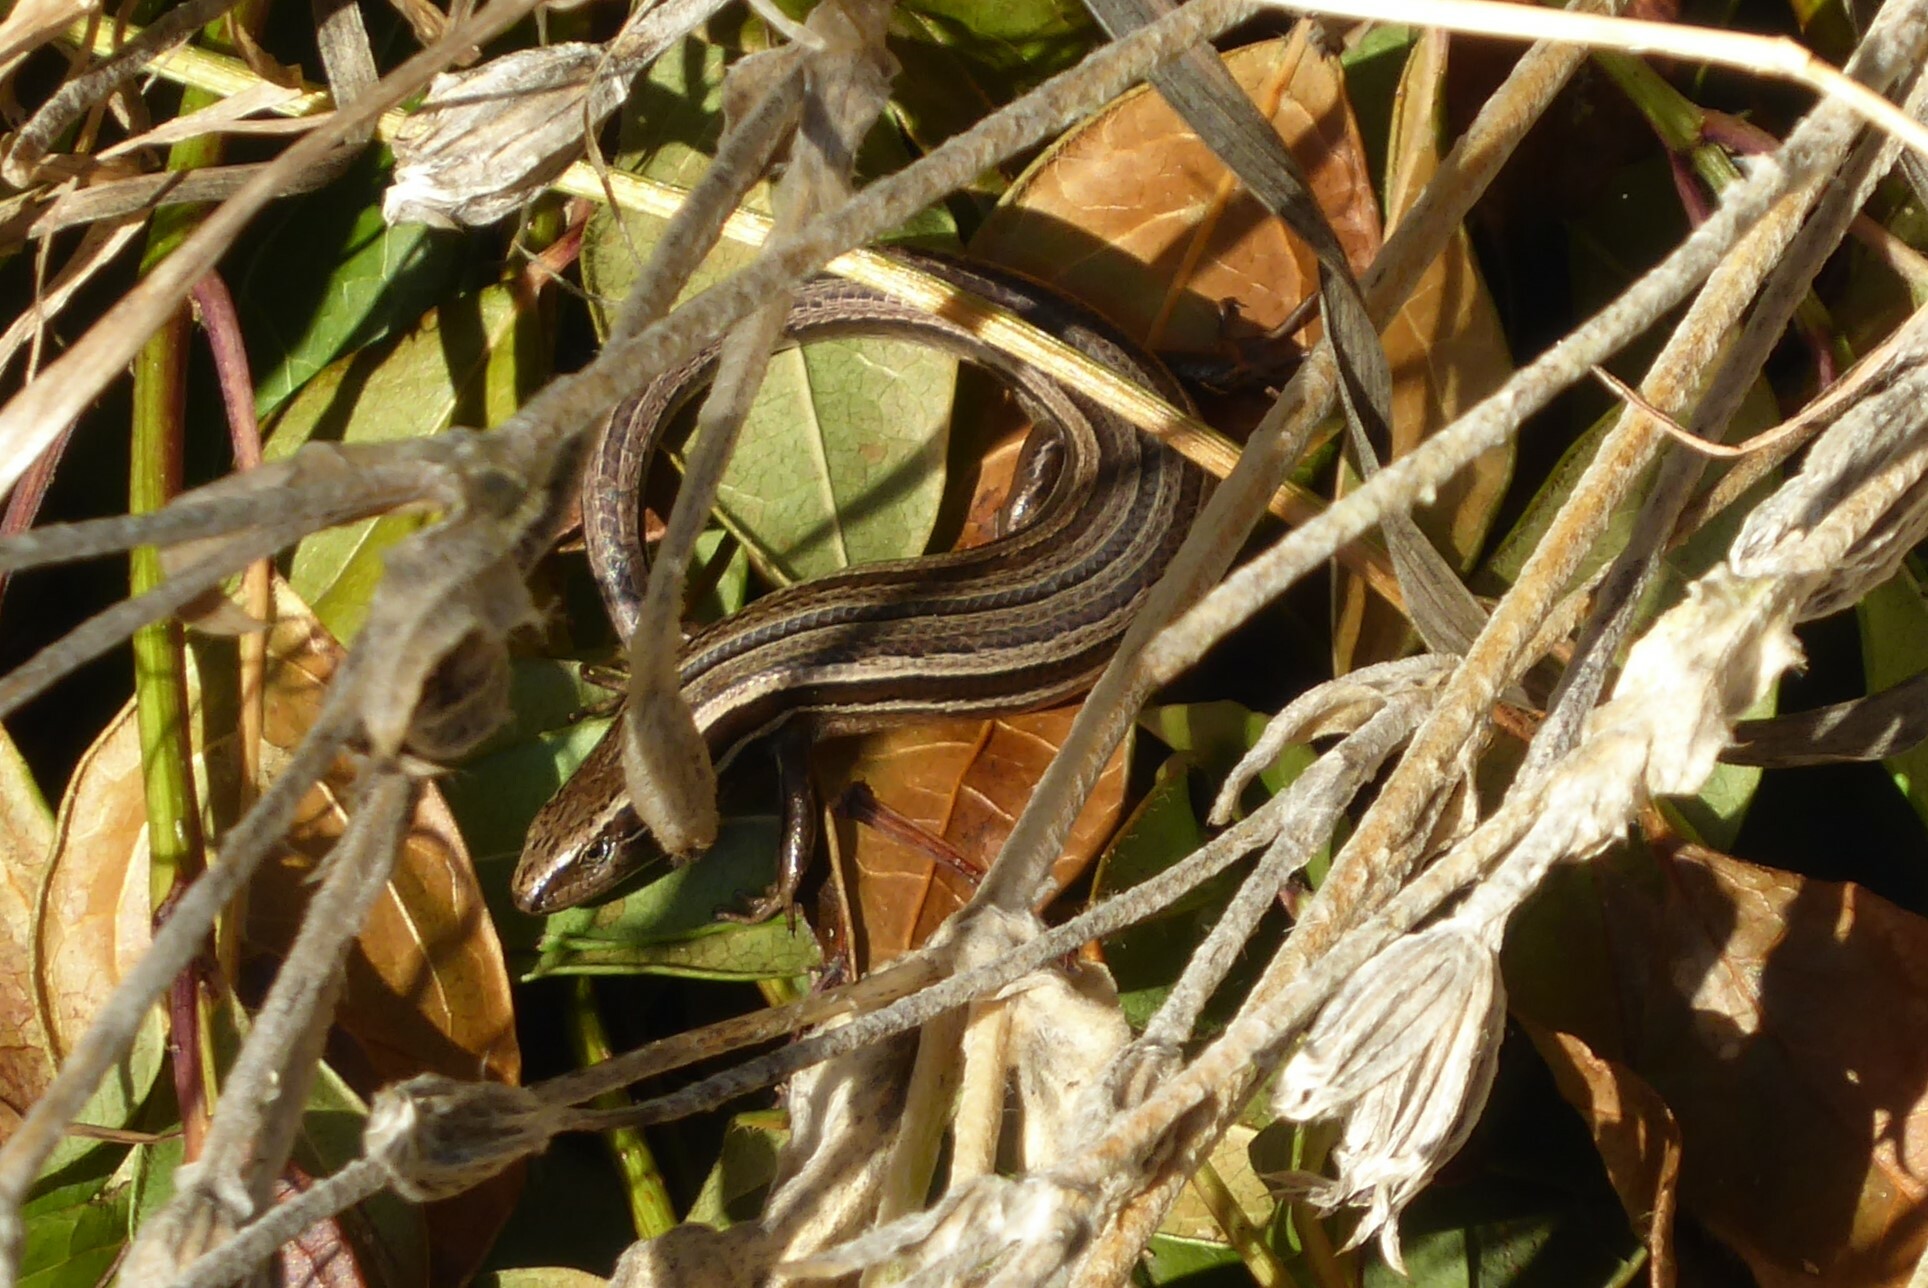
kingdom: Animalia
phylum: Chordata
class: Squamata
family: Scincidae
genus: Oligosoma
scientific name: Oligosoma polychroma
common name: Common new zealand skink
